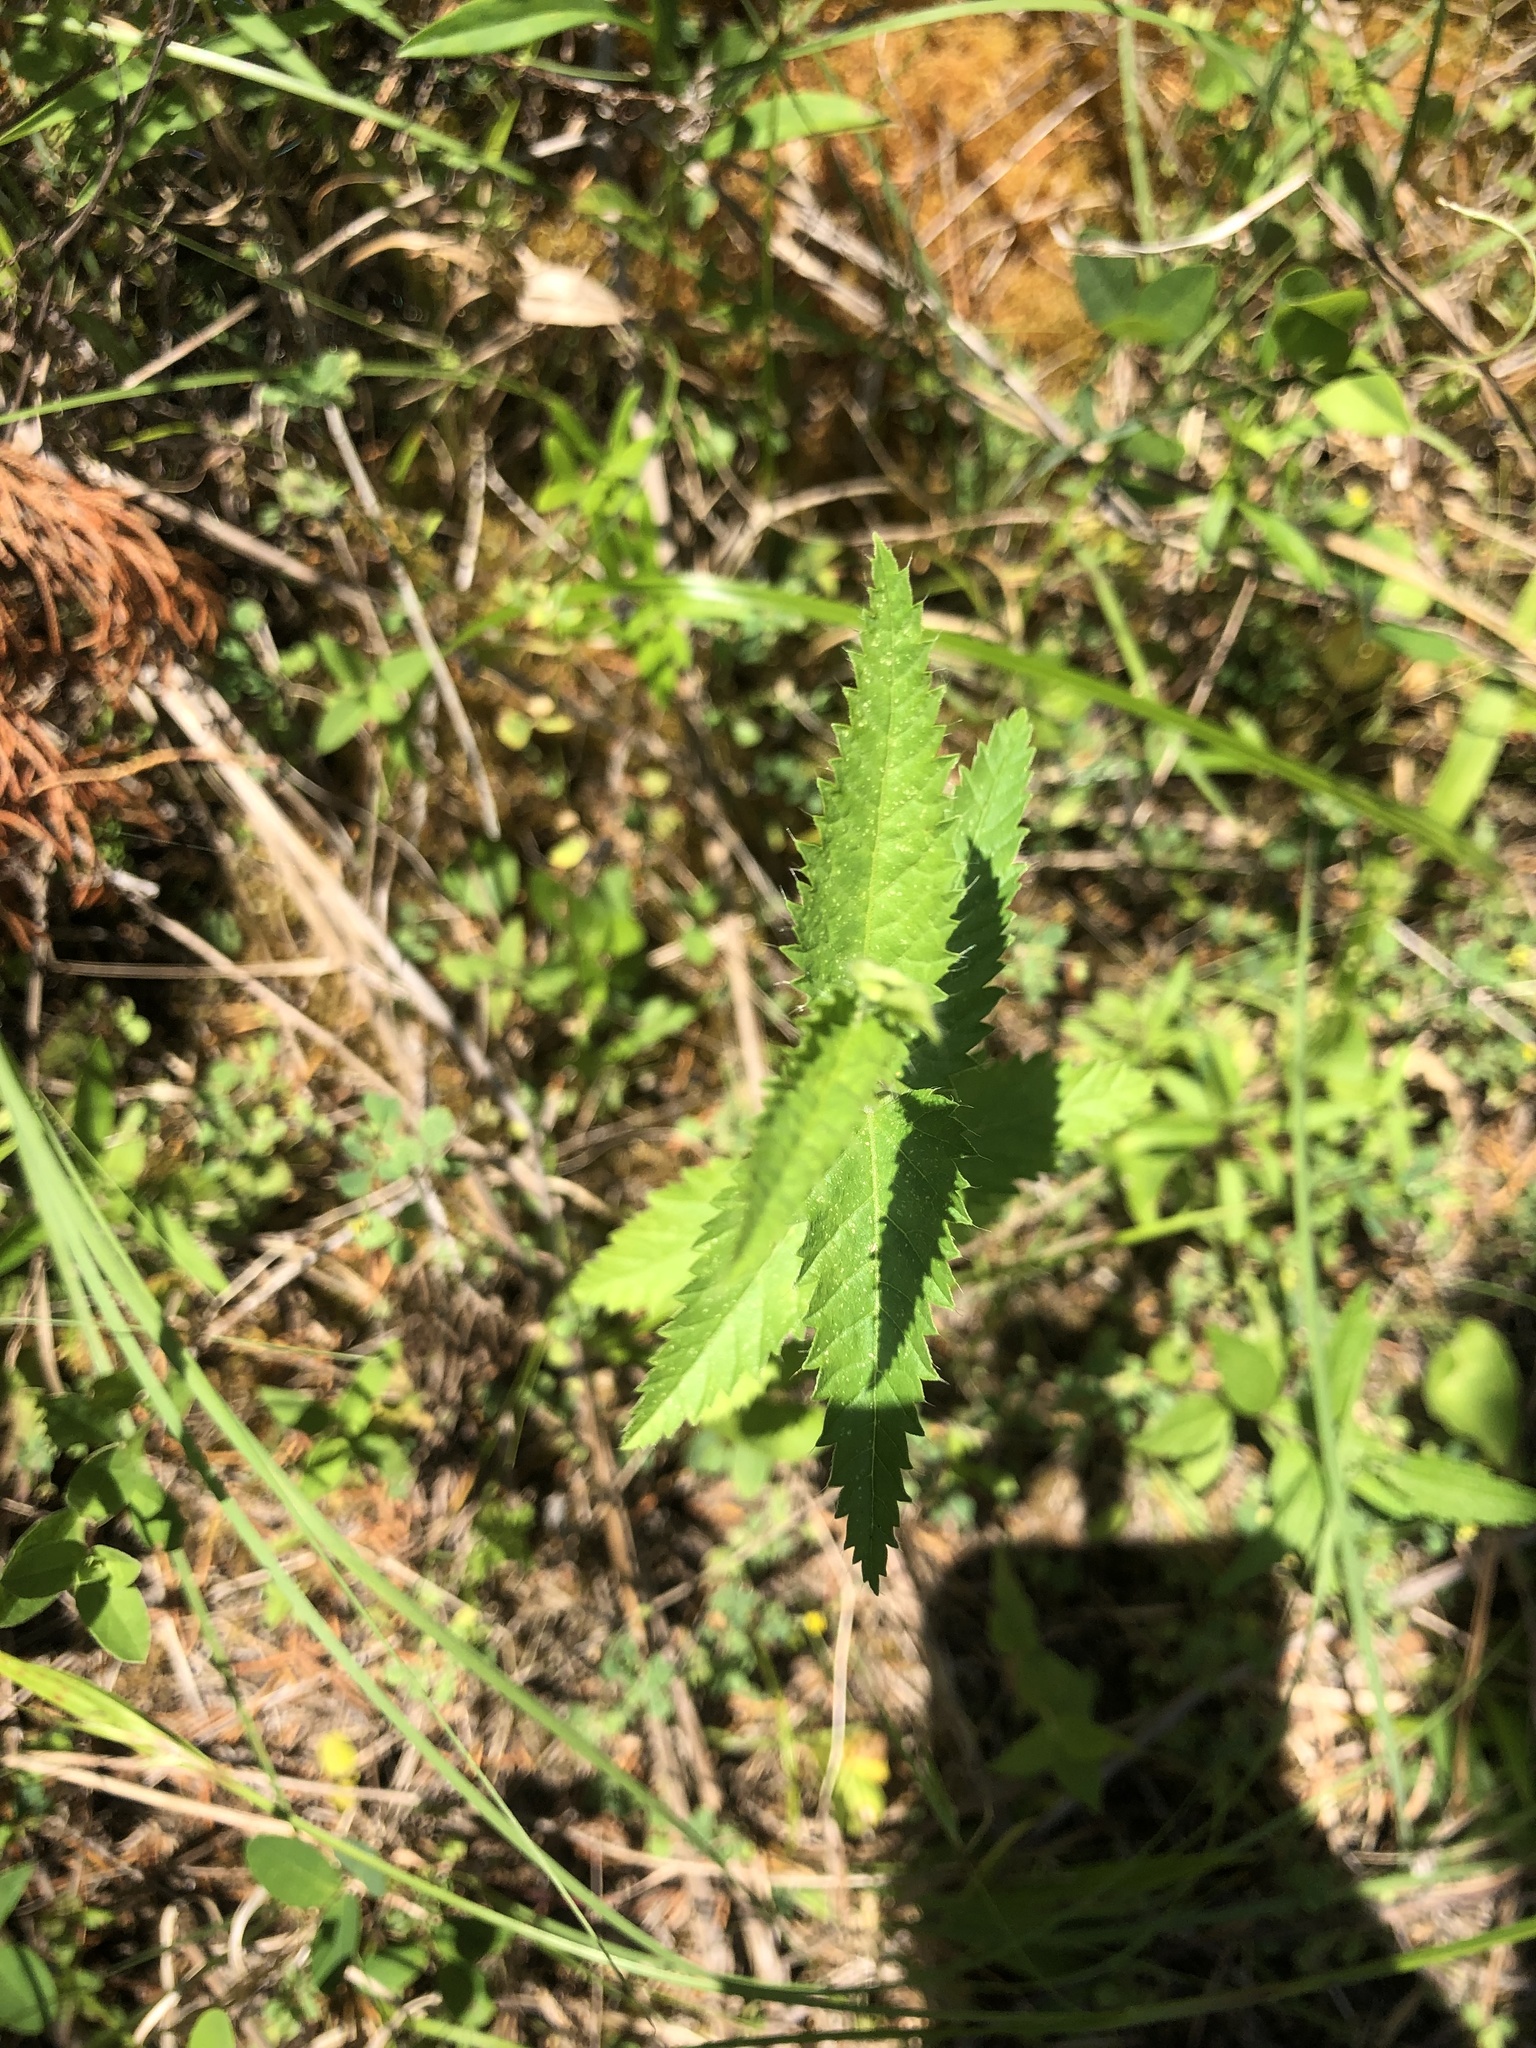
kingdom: Plantae
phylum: Tracheophyta
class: Magnoliopsida
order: Malpighiales
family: Euphorbiaceae
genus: Tragia
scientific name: Tragia urticifolia
